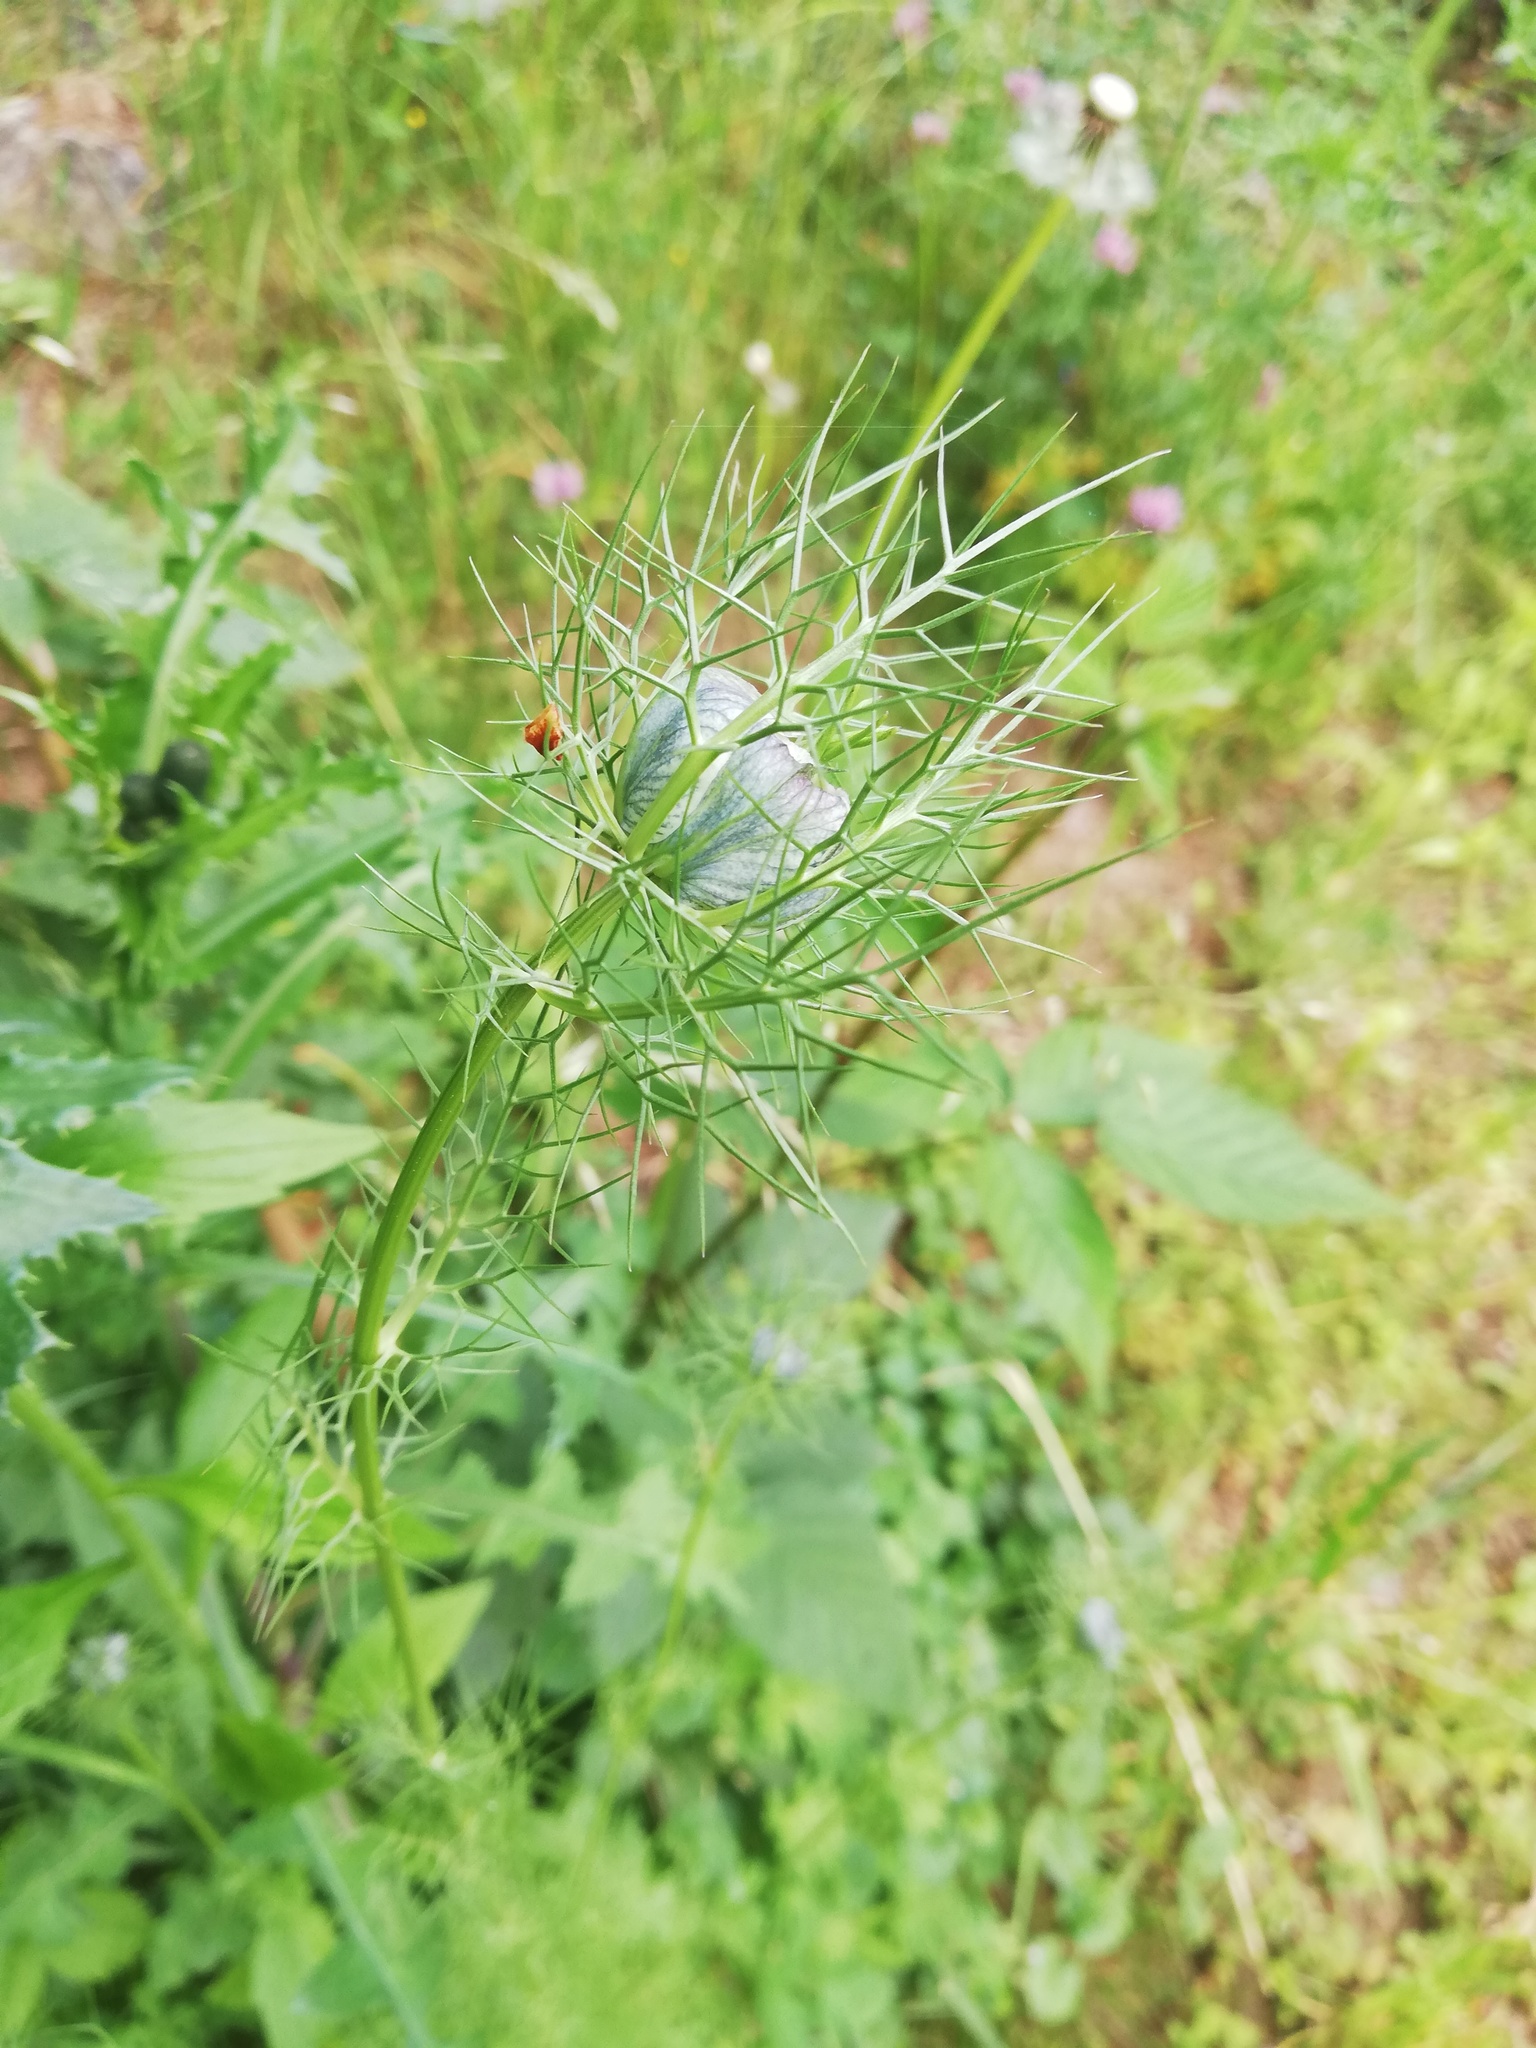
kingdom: Plantae
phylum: Tracheophyta
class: Magnoliopsida
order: Ranunculales
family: Ranunculaceae
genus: Nigella
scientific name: Nigella damascena
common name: Love-in-a-mist
